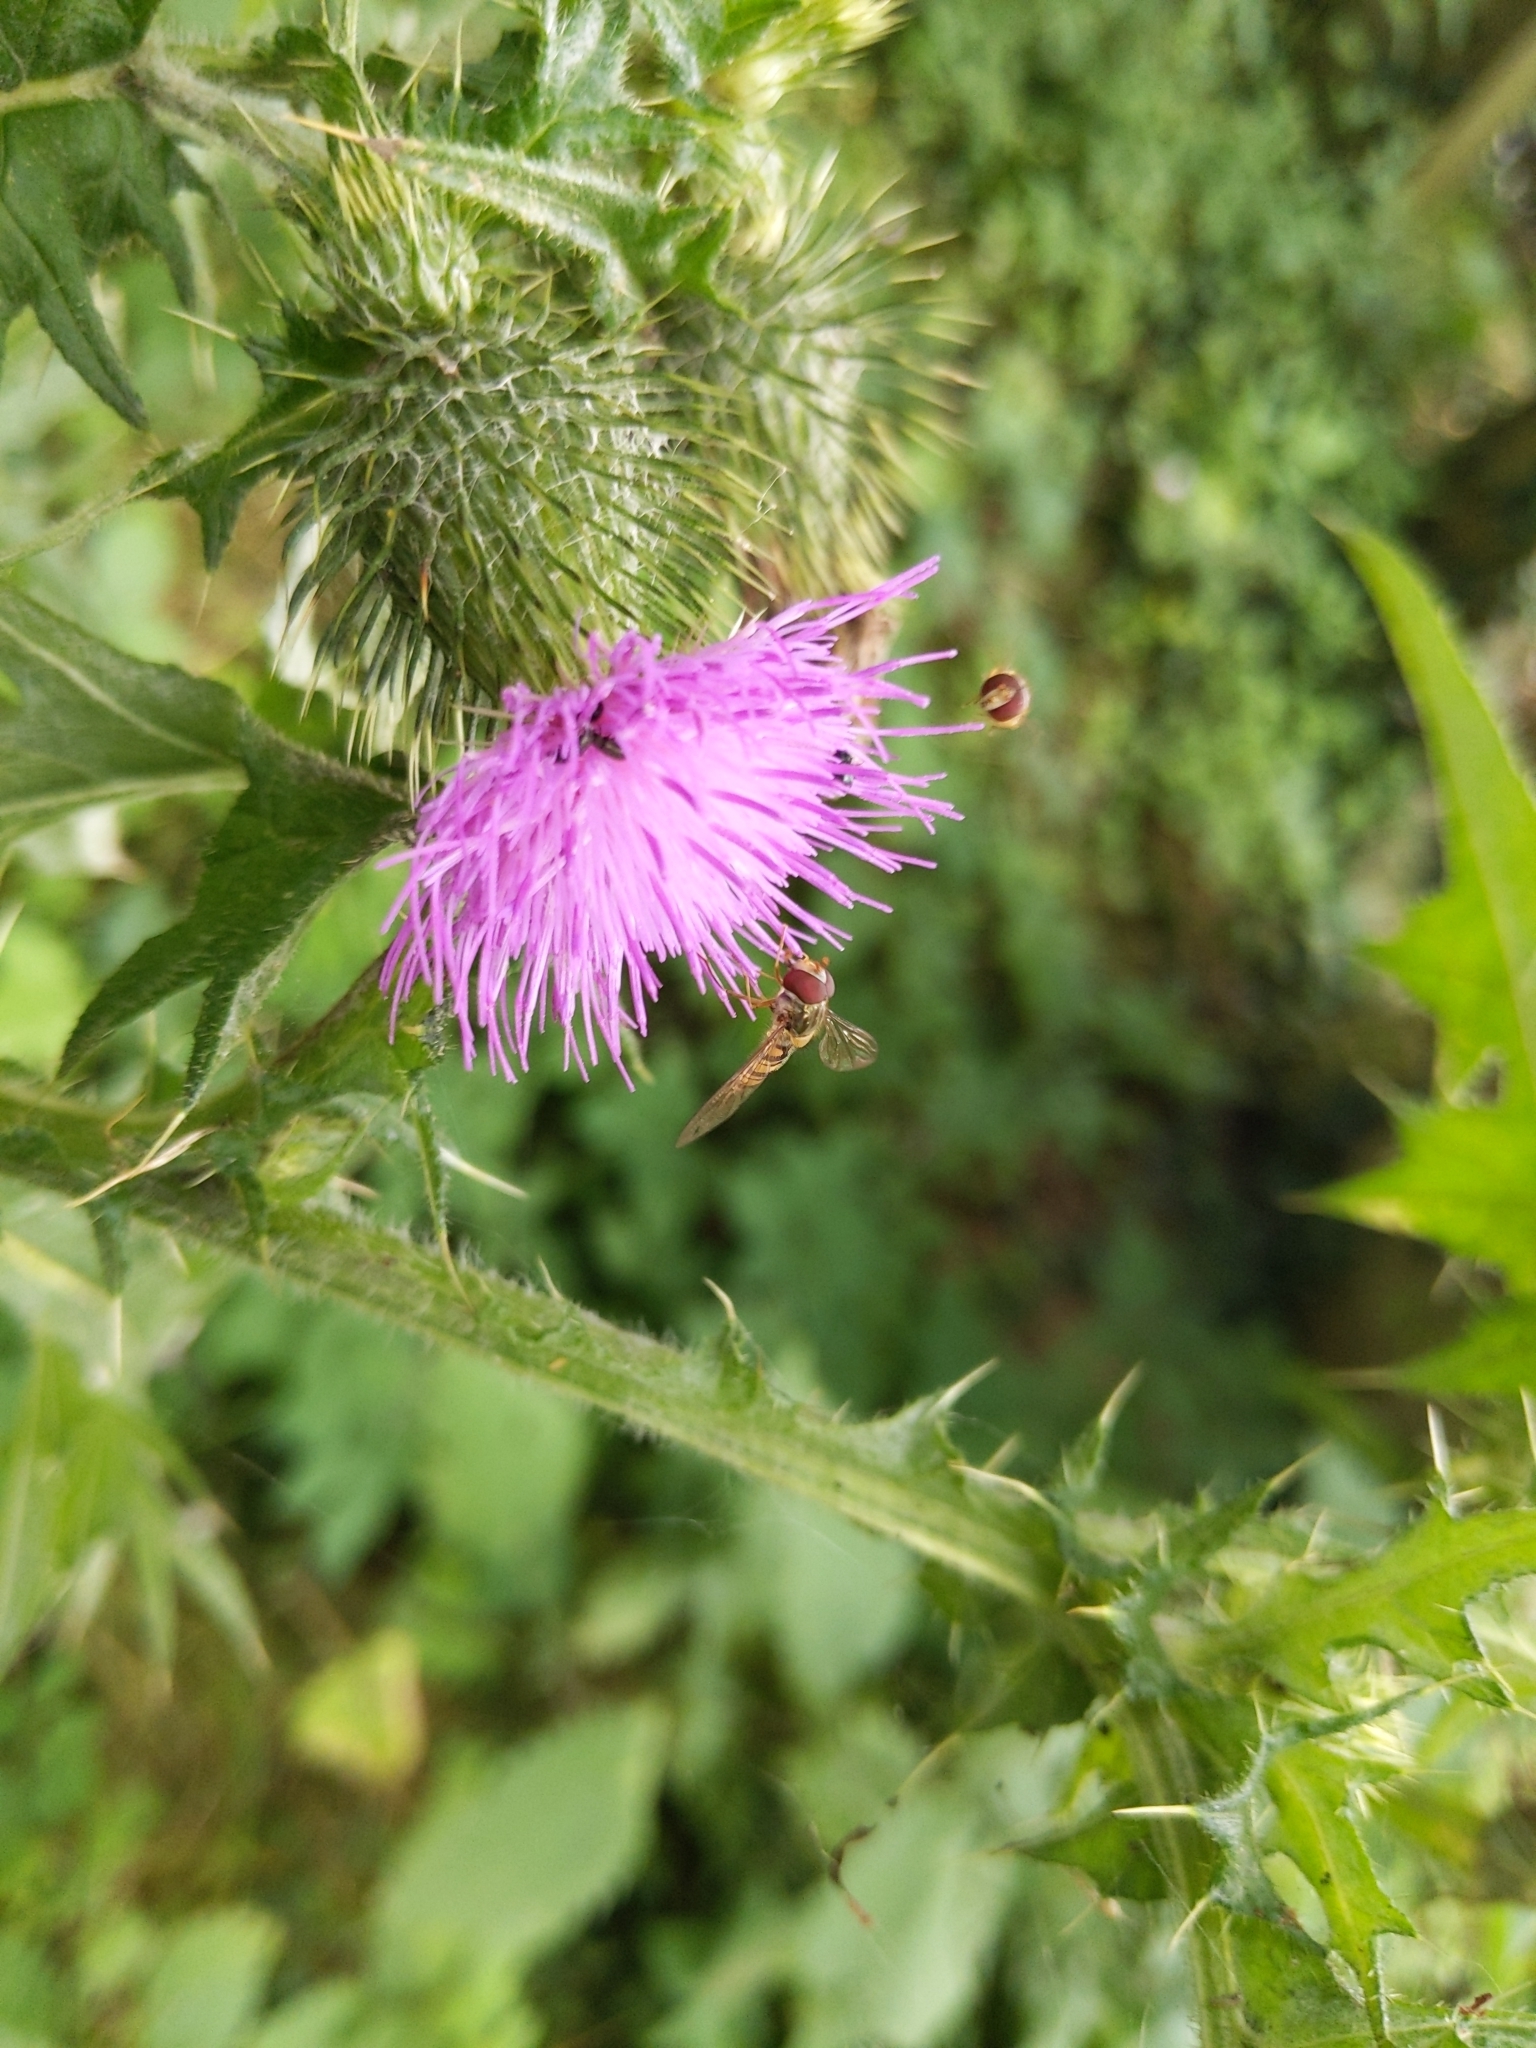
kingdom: Animalia
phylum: Arthropoda
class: Insecta
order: Diptera
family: Syrphidae
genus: Episyrphus
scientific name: Episyrphus balteatus
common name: Marmalade hoverfly
